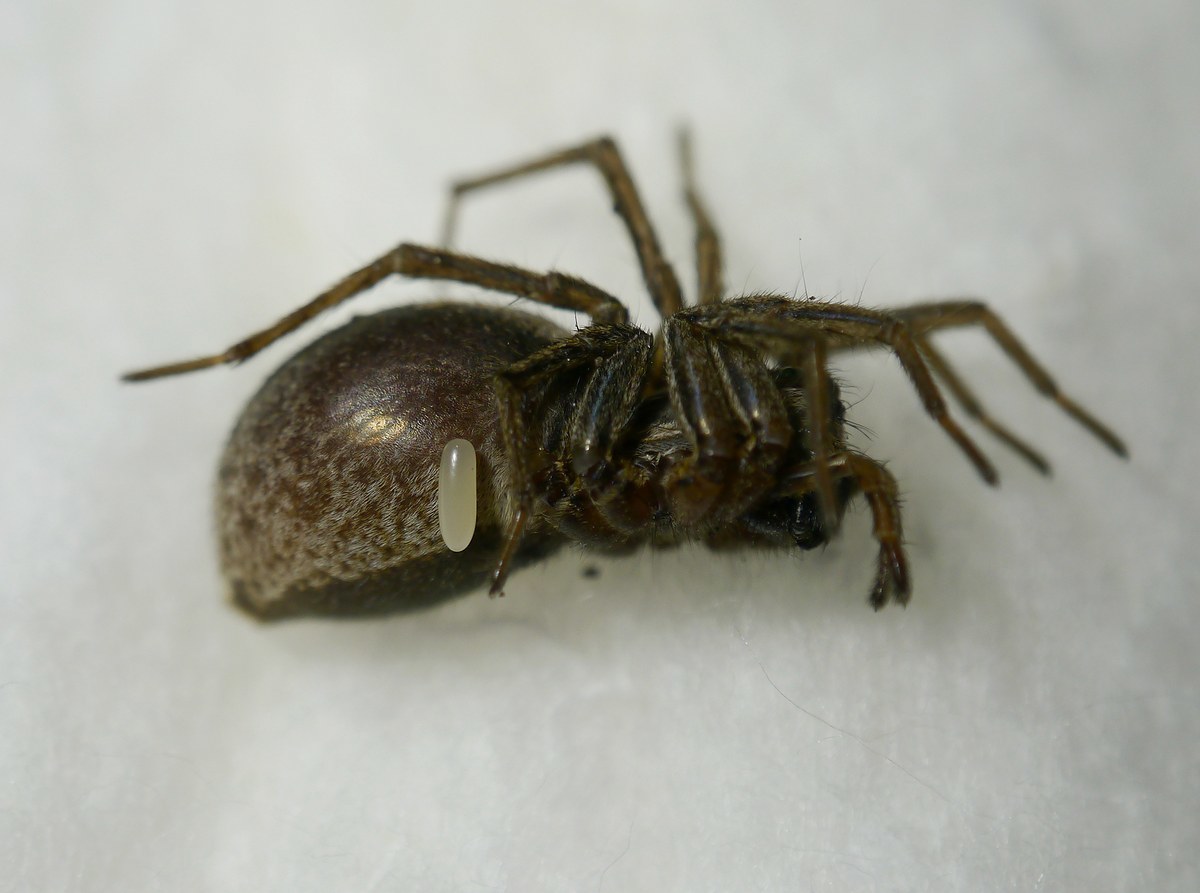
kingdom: Animalia
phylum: Arthropoda
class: Insecta
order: Hymenoptera
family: Pompilidae
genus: Anoplius
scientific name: Anoplius viaticus
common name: Black banded spider wasp
